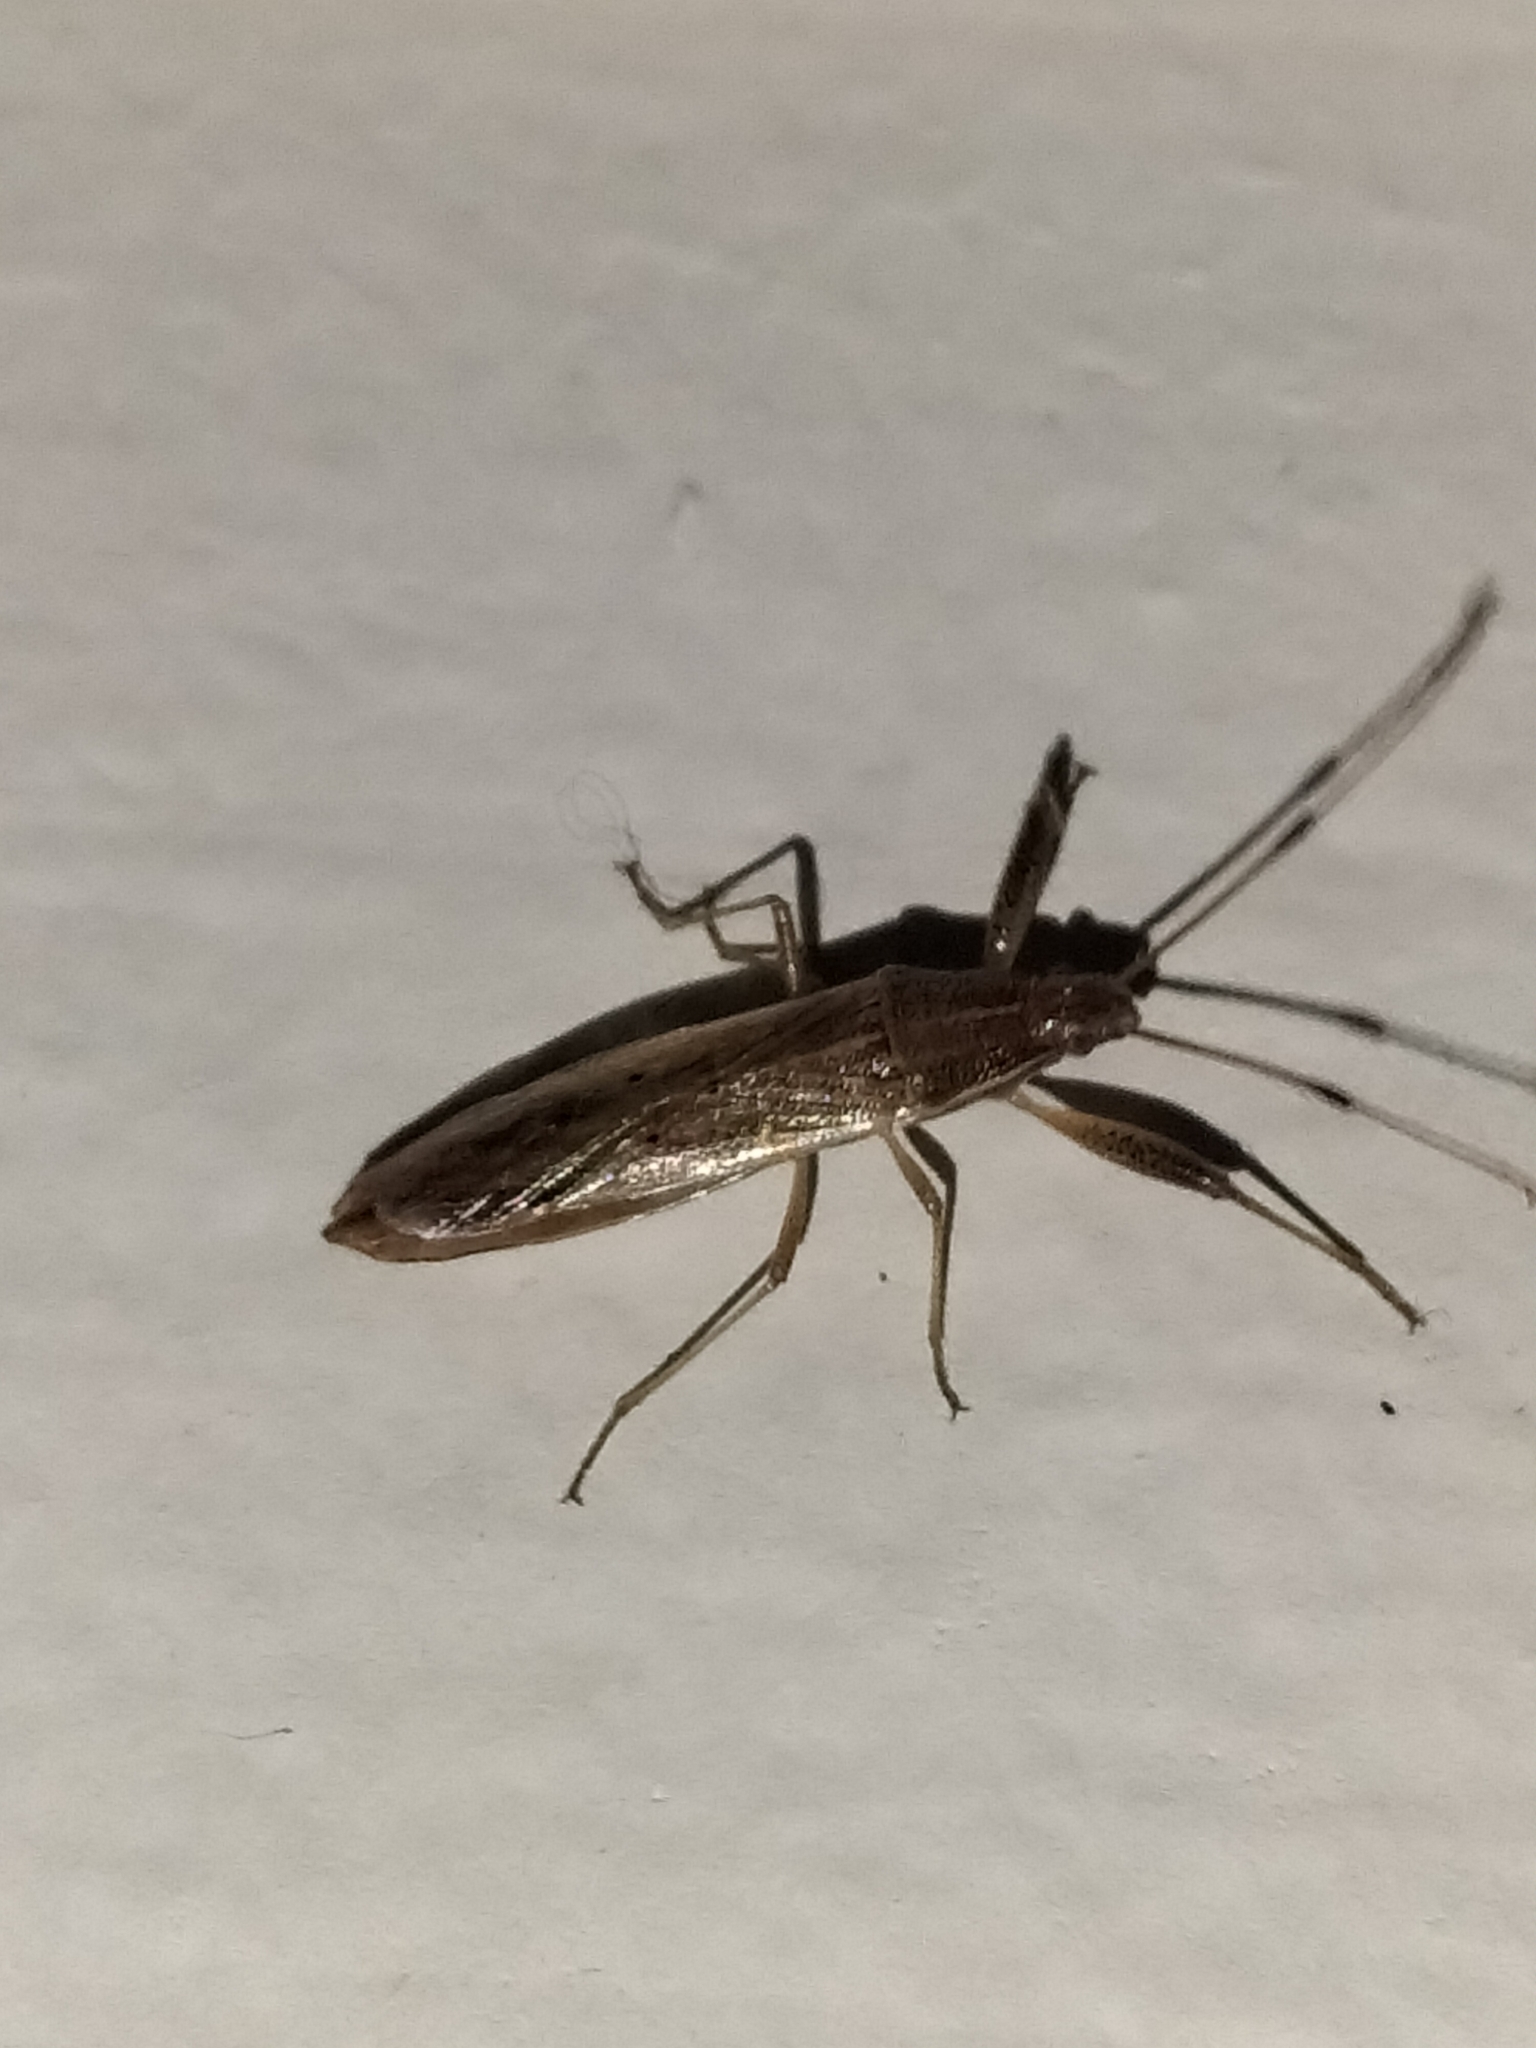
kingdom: Animalia
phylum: Arthropoda
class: Insecta
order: Hemiptera
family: Pachygronthidae
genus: Pachygrontha
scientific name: Pachygrontha austrina
